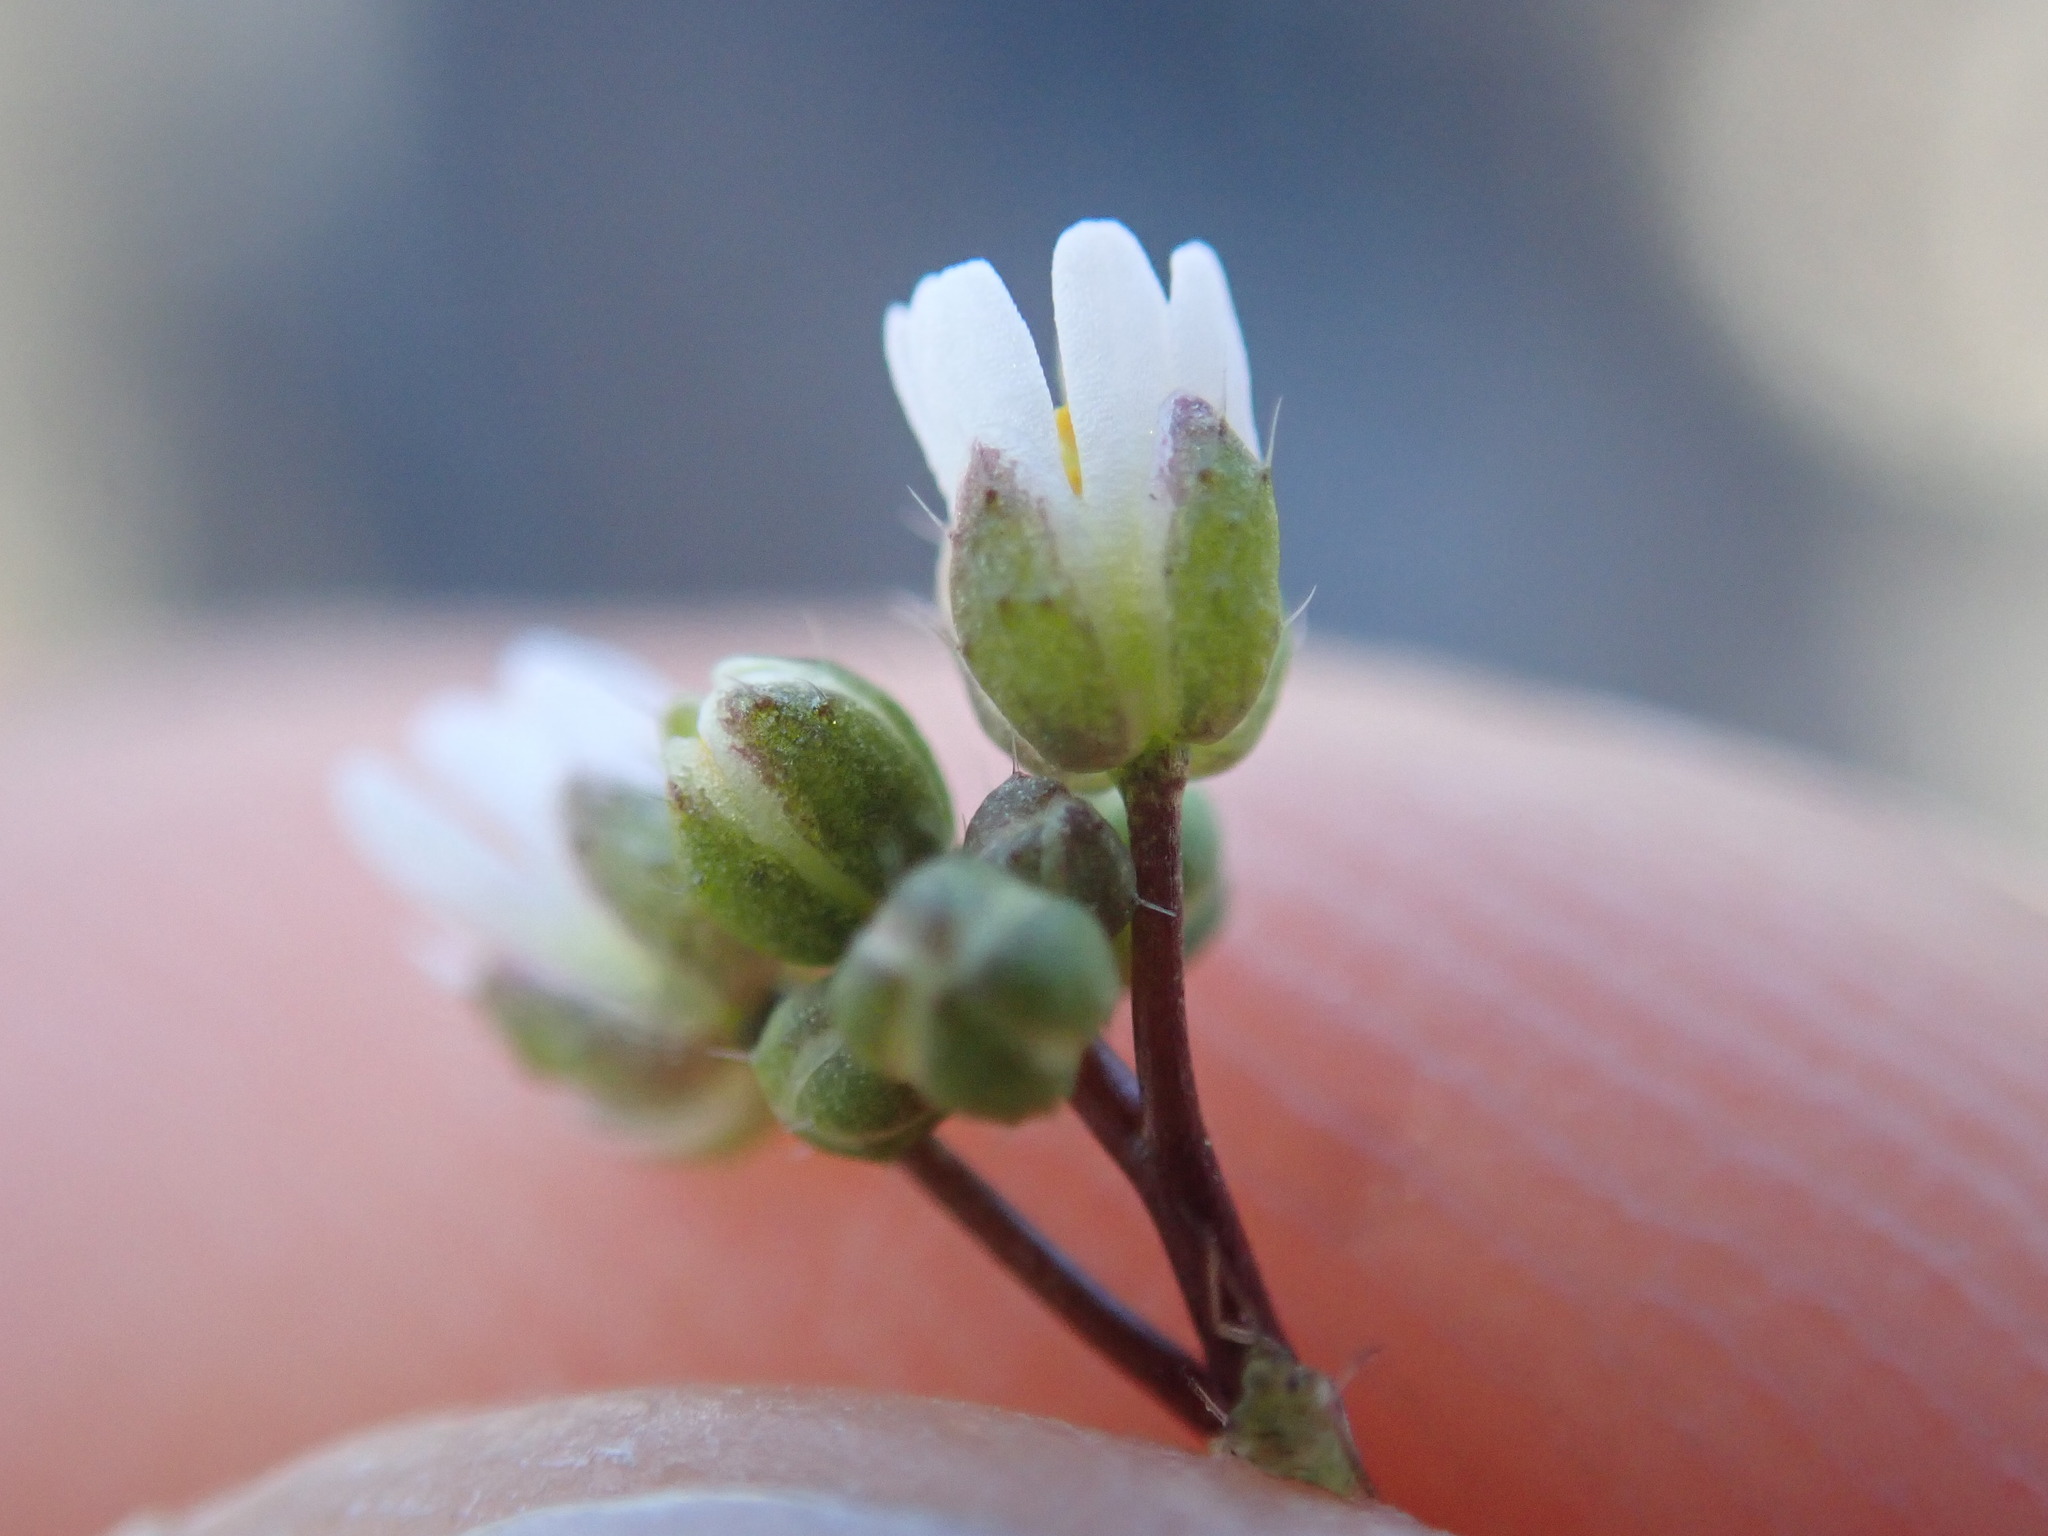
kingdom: Plantae
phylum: Tracheophyta
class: Magnoliopsida
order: Brassicales
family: Brassicaceae
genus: Draba
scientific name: Draba verna
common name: Spring draba
